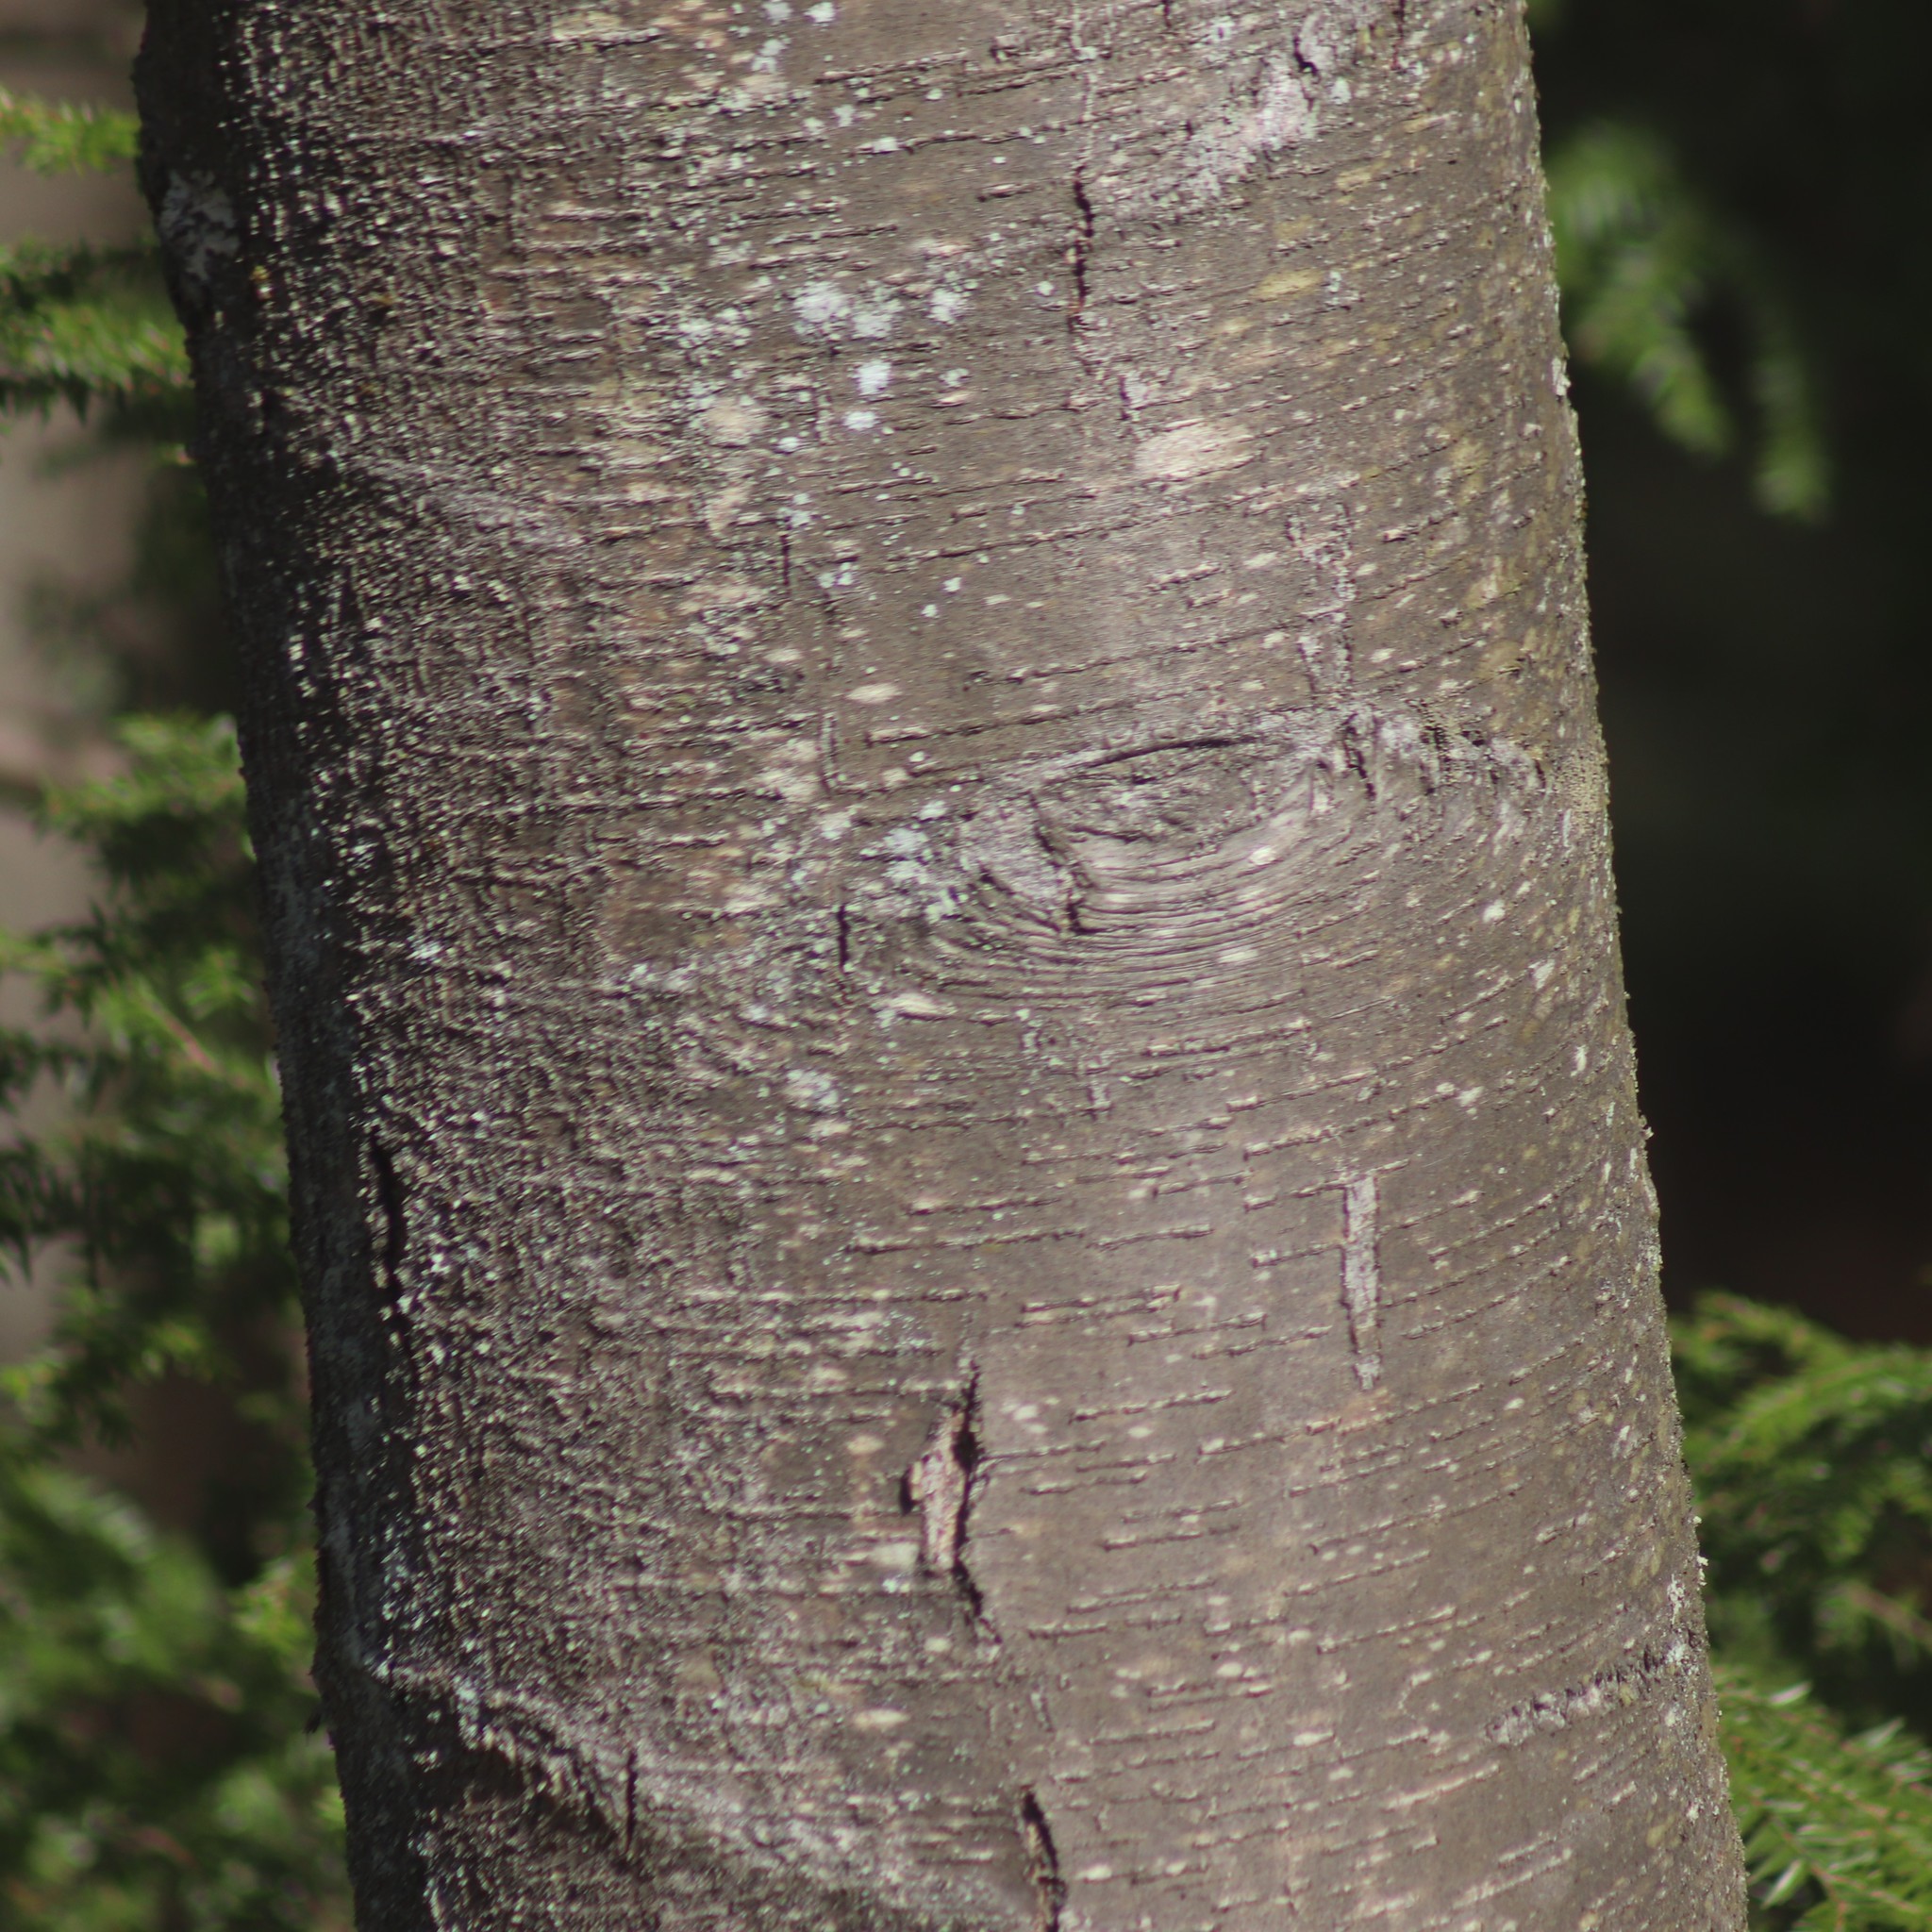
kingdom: Plantae
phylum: Tracheophyta
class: Magnoliopsida
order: Fagales
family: Betulaceae
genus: Betula
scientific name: Betula lenta
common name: Black birch
